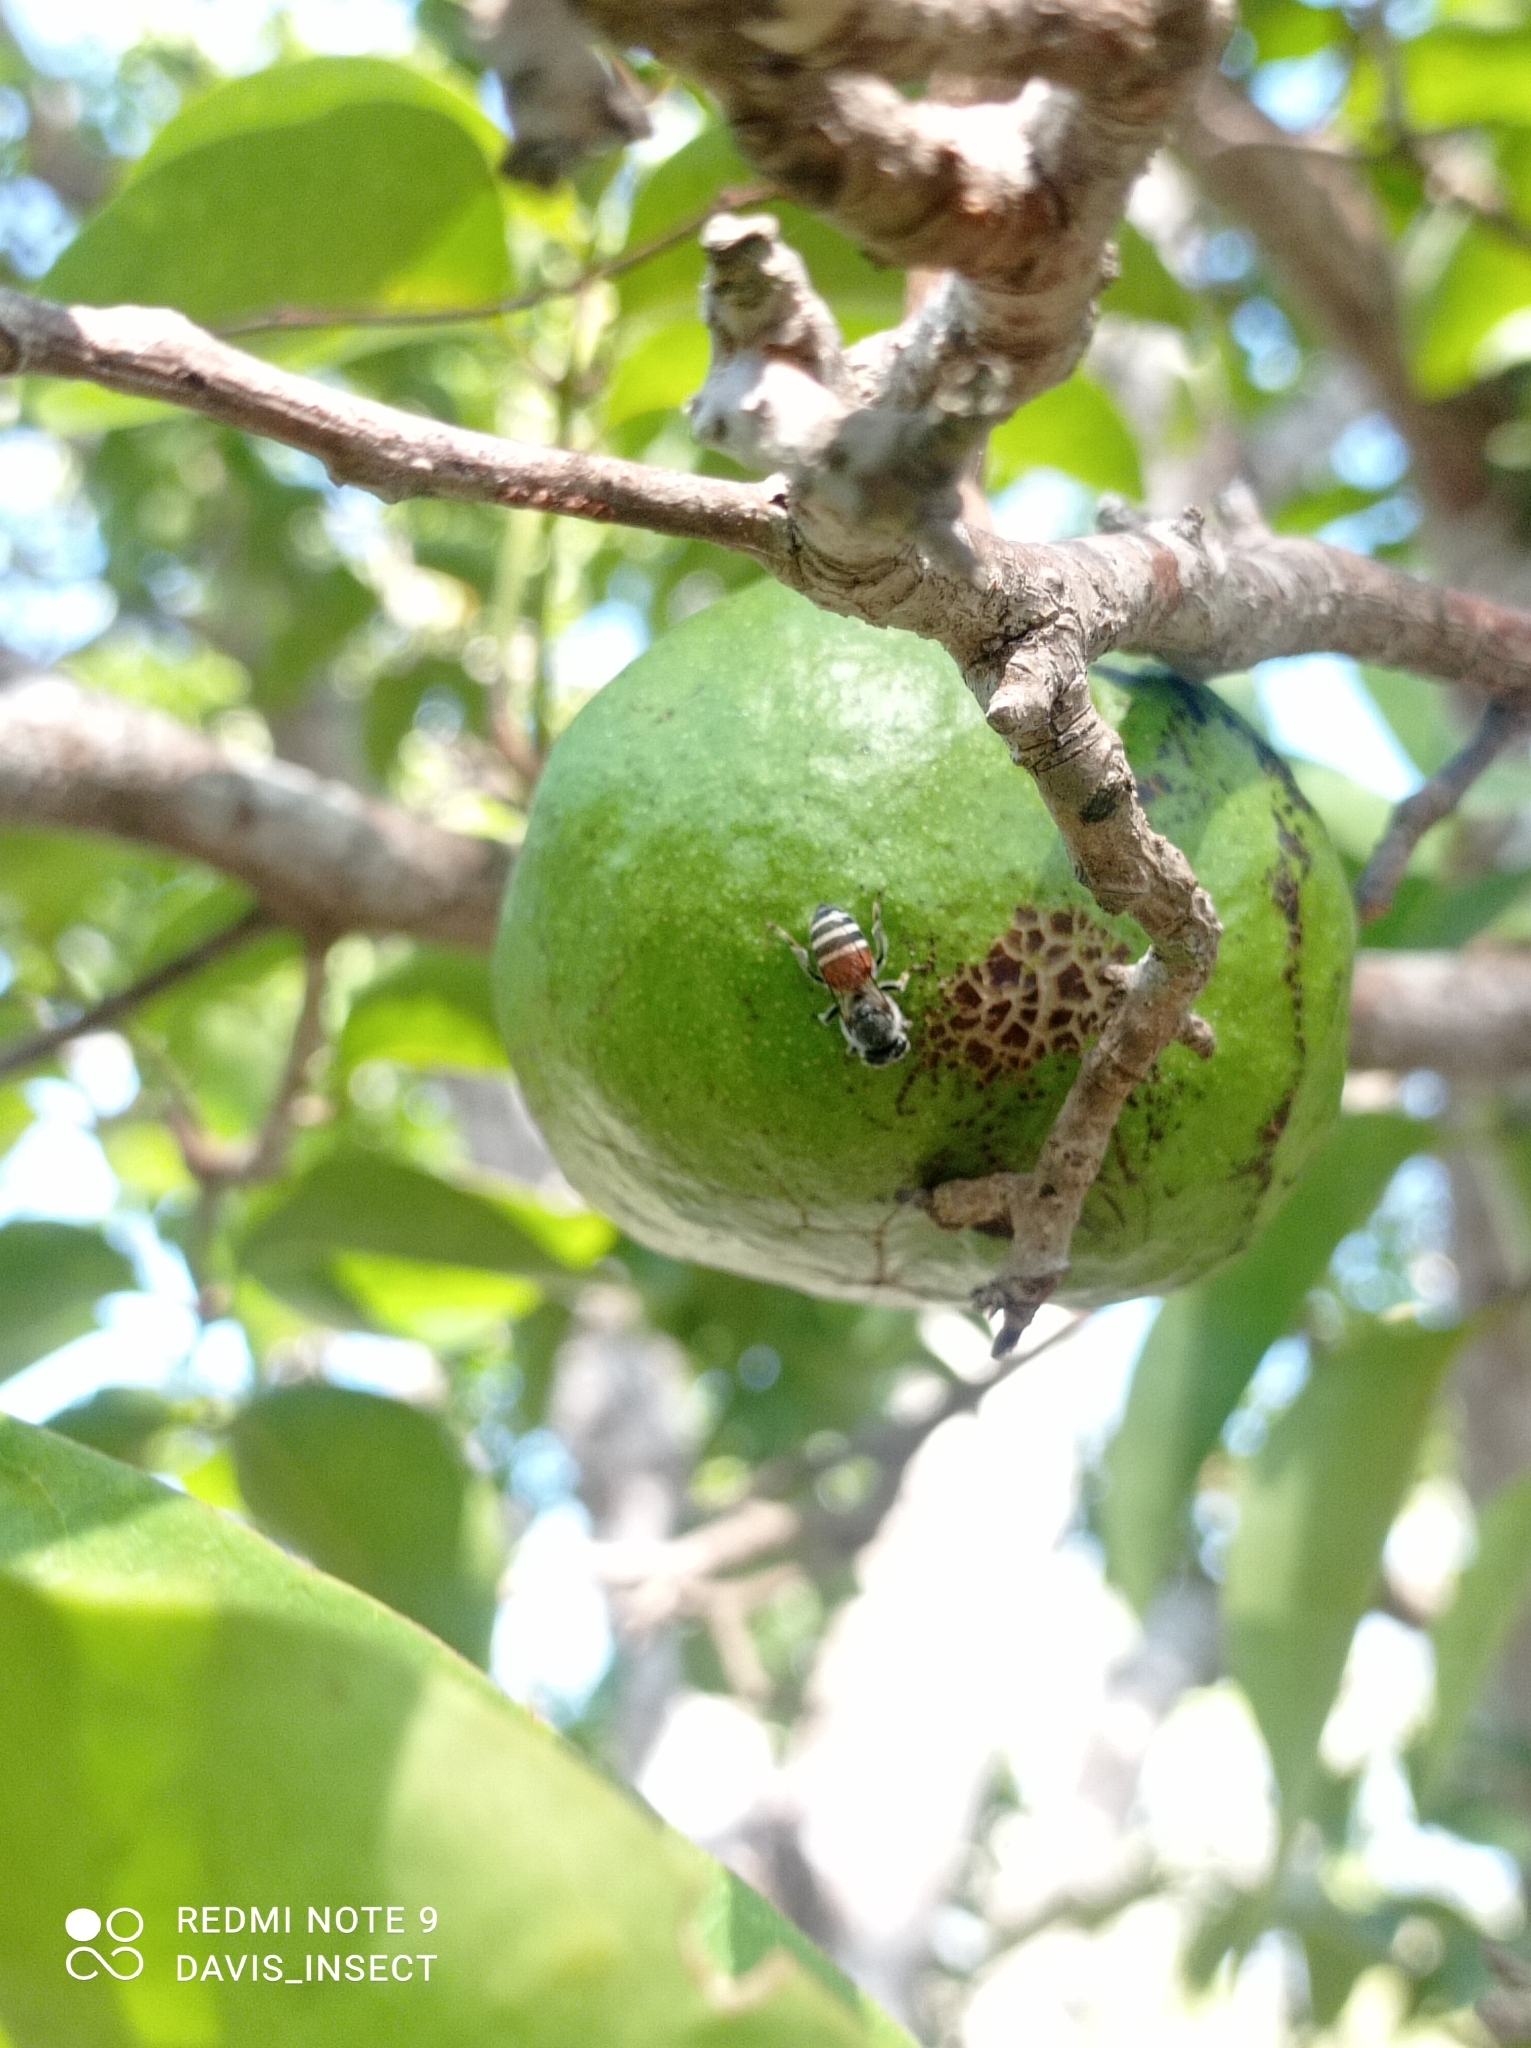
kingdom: Animalia
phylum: Arthropoda
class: Insecta
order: Hymenoptera
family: Apidae
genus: Apis
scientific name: Apis florea
